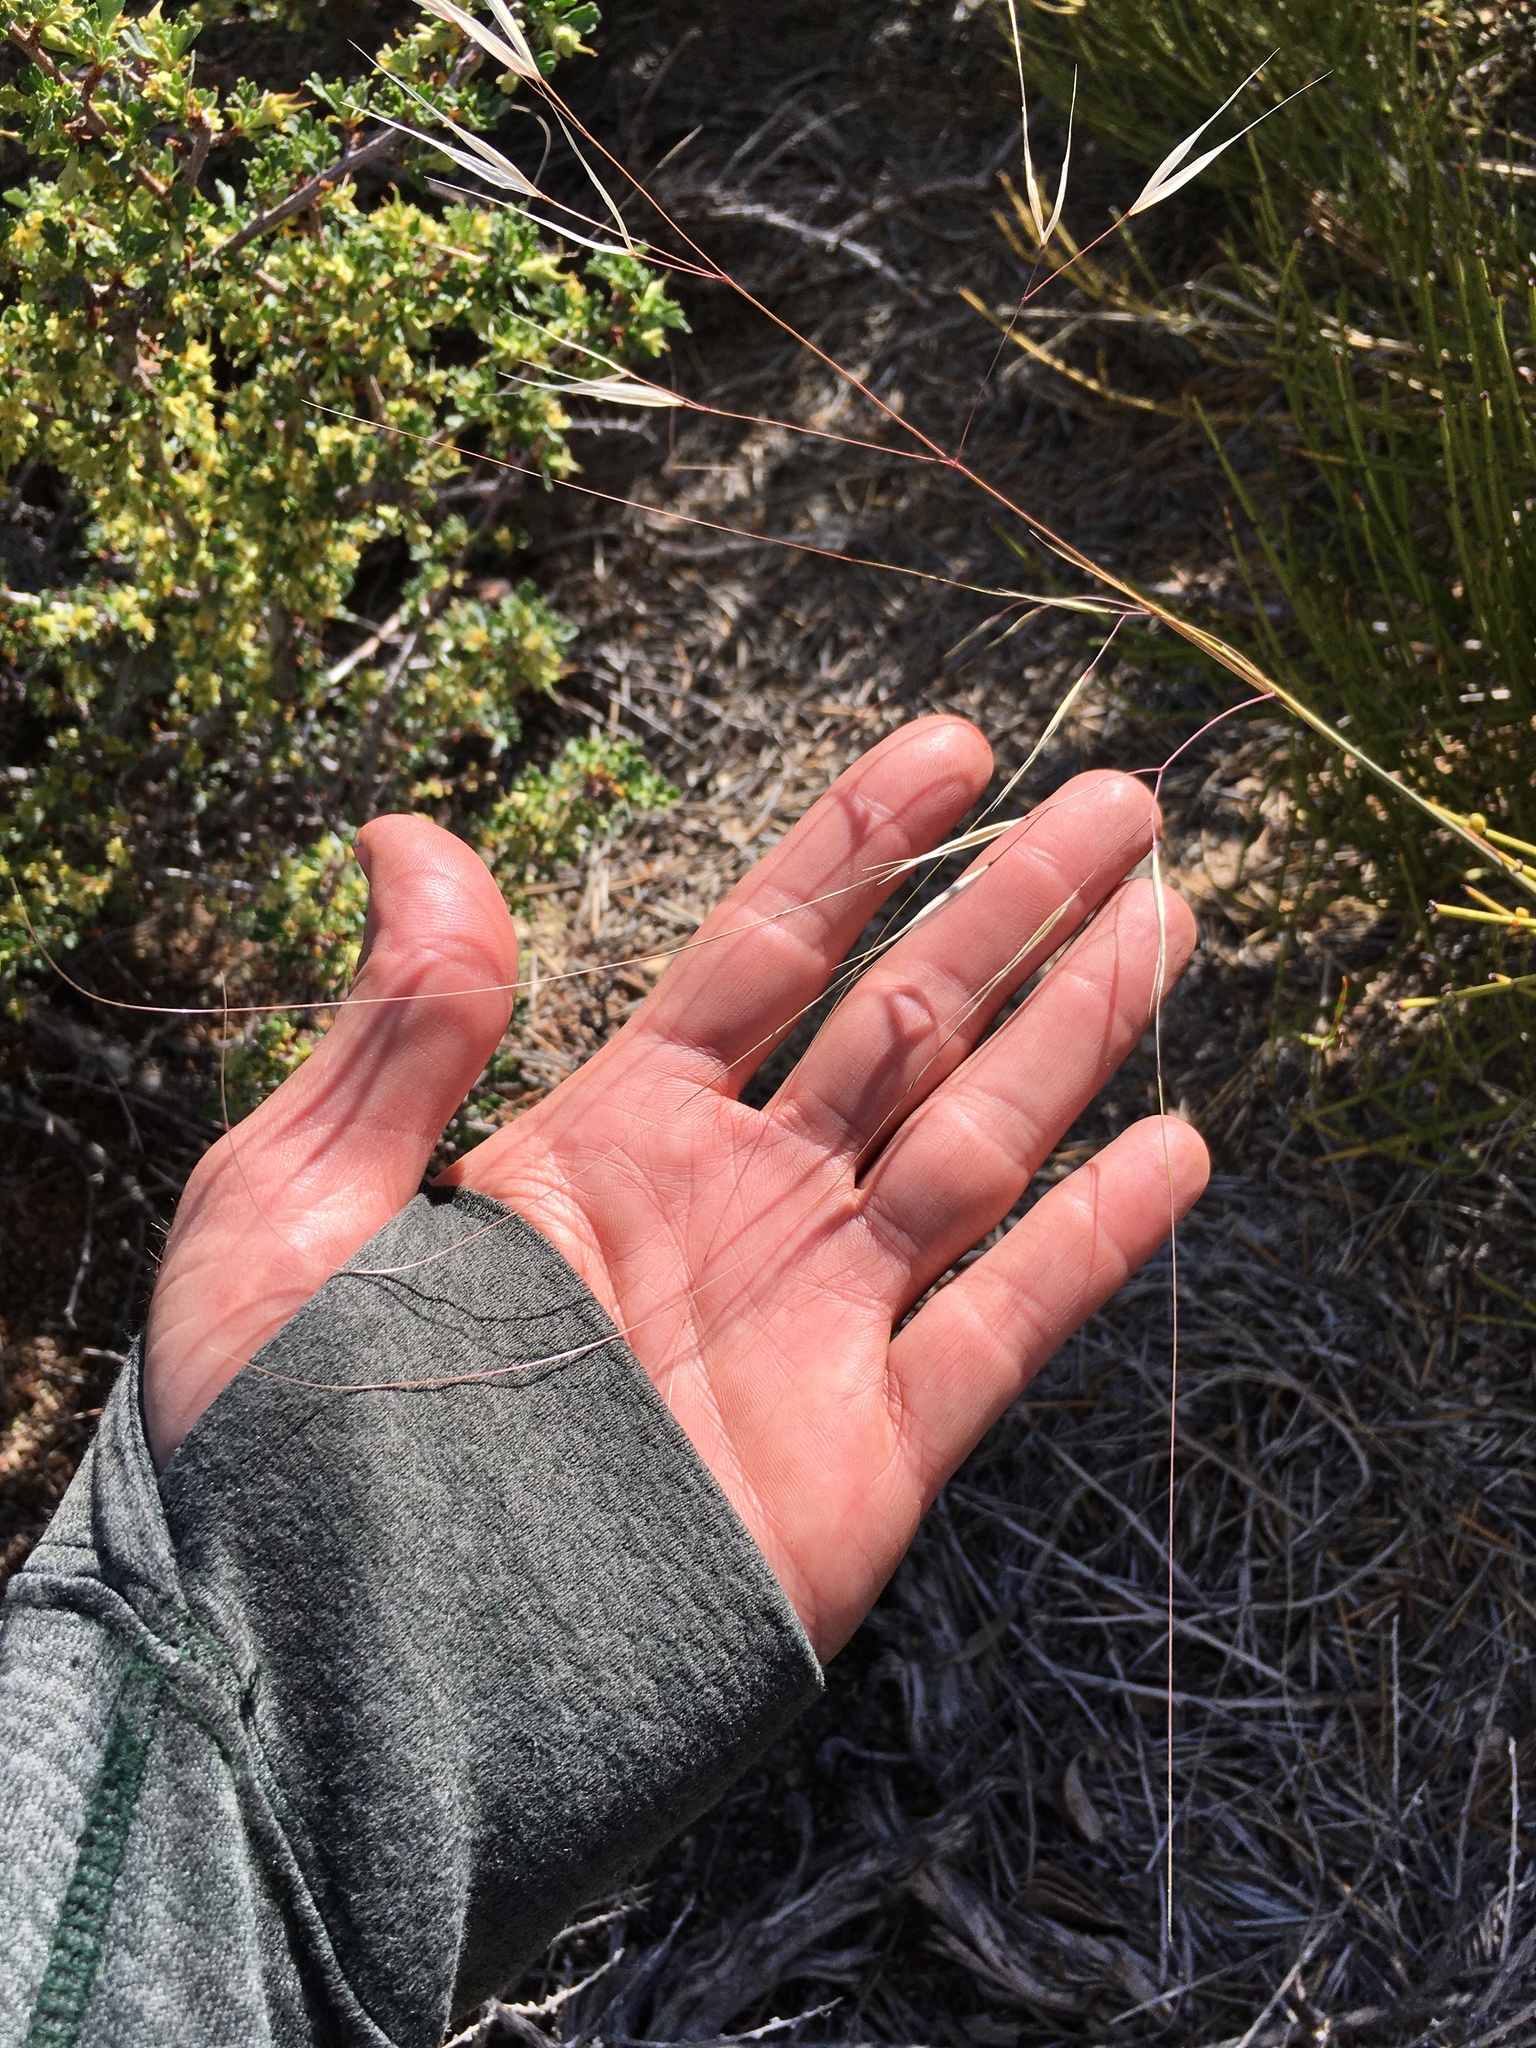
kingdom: Plantae
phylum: Tracheophyta
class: Liliopsida
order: Poales
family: Poaceae
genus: Hesperostipa
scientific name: Hesperostipa comata
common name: Needle-and-thread grass
